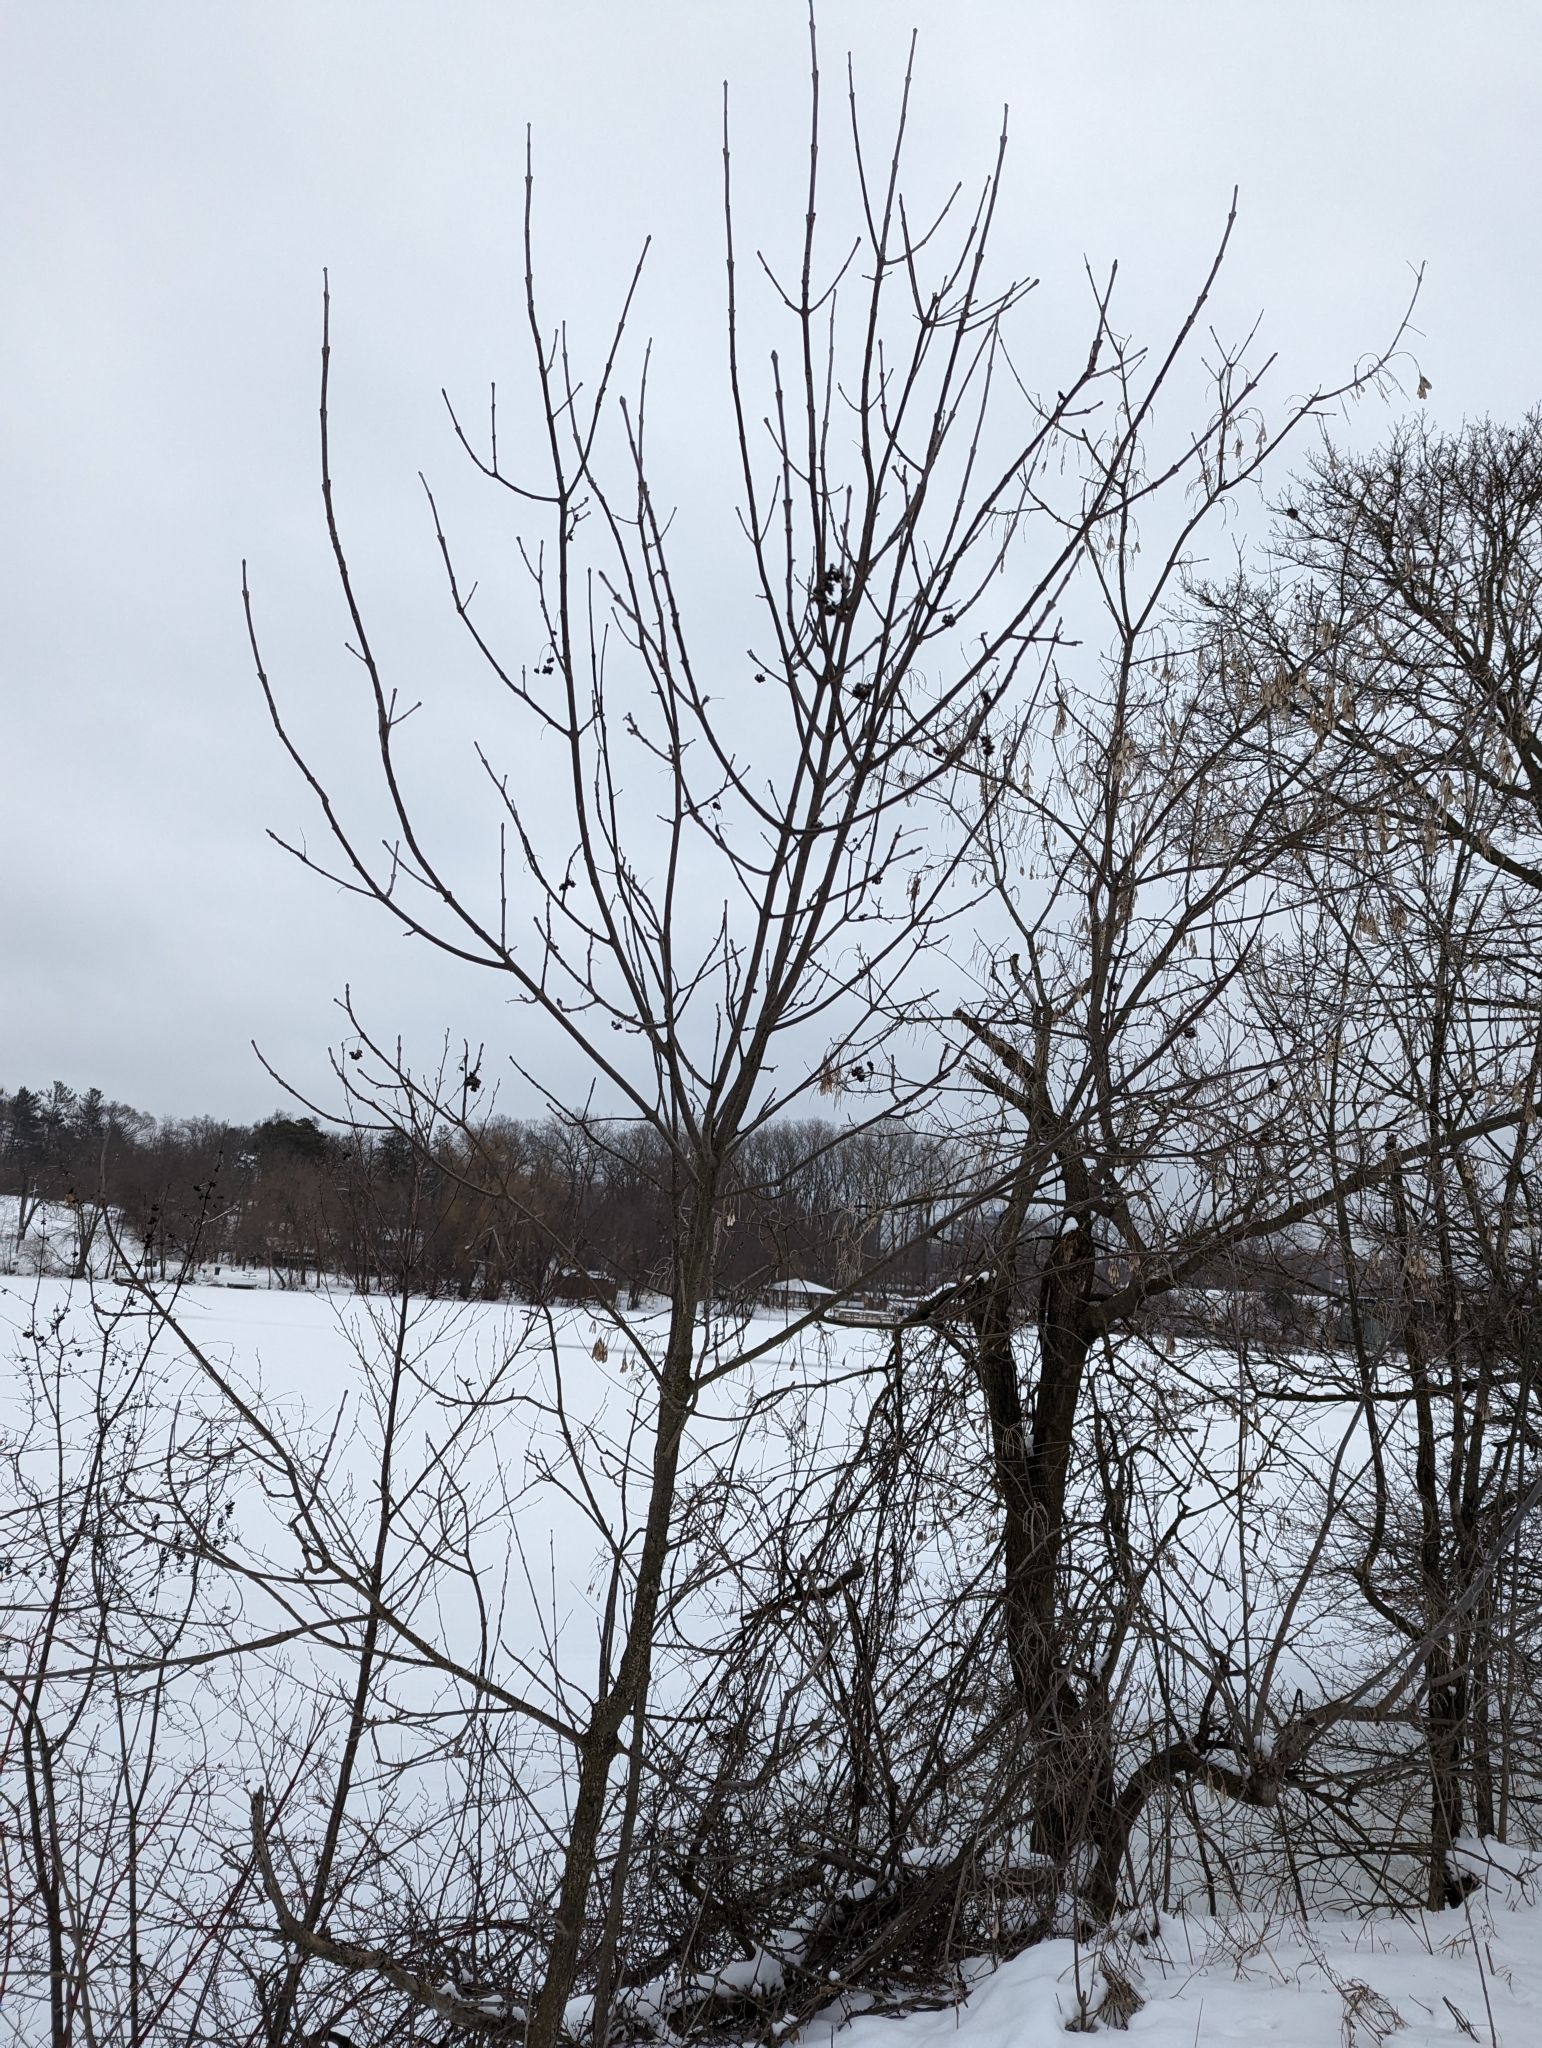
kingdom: Plantae
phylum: Tracheophyta
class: Magnoliopsida
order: Lamiales
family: Bignoniaceae
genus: Catalpa
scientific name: Catalpa speciosa
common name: Northern catalpa
